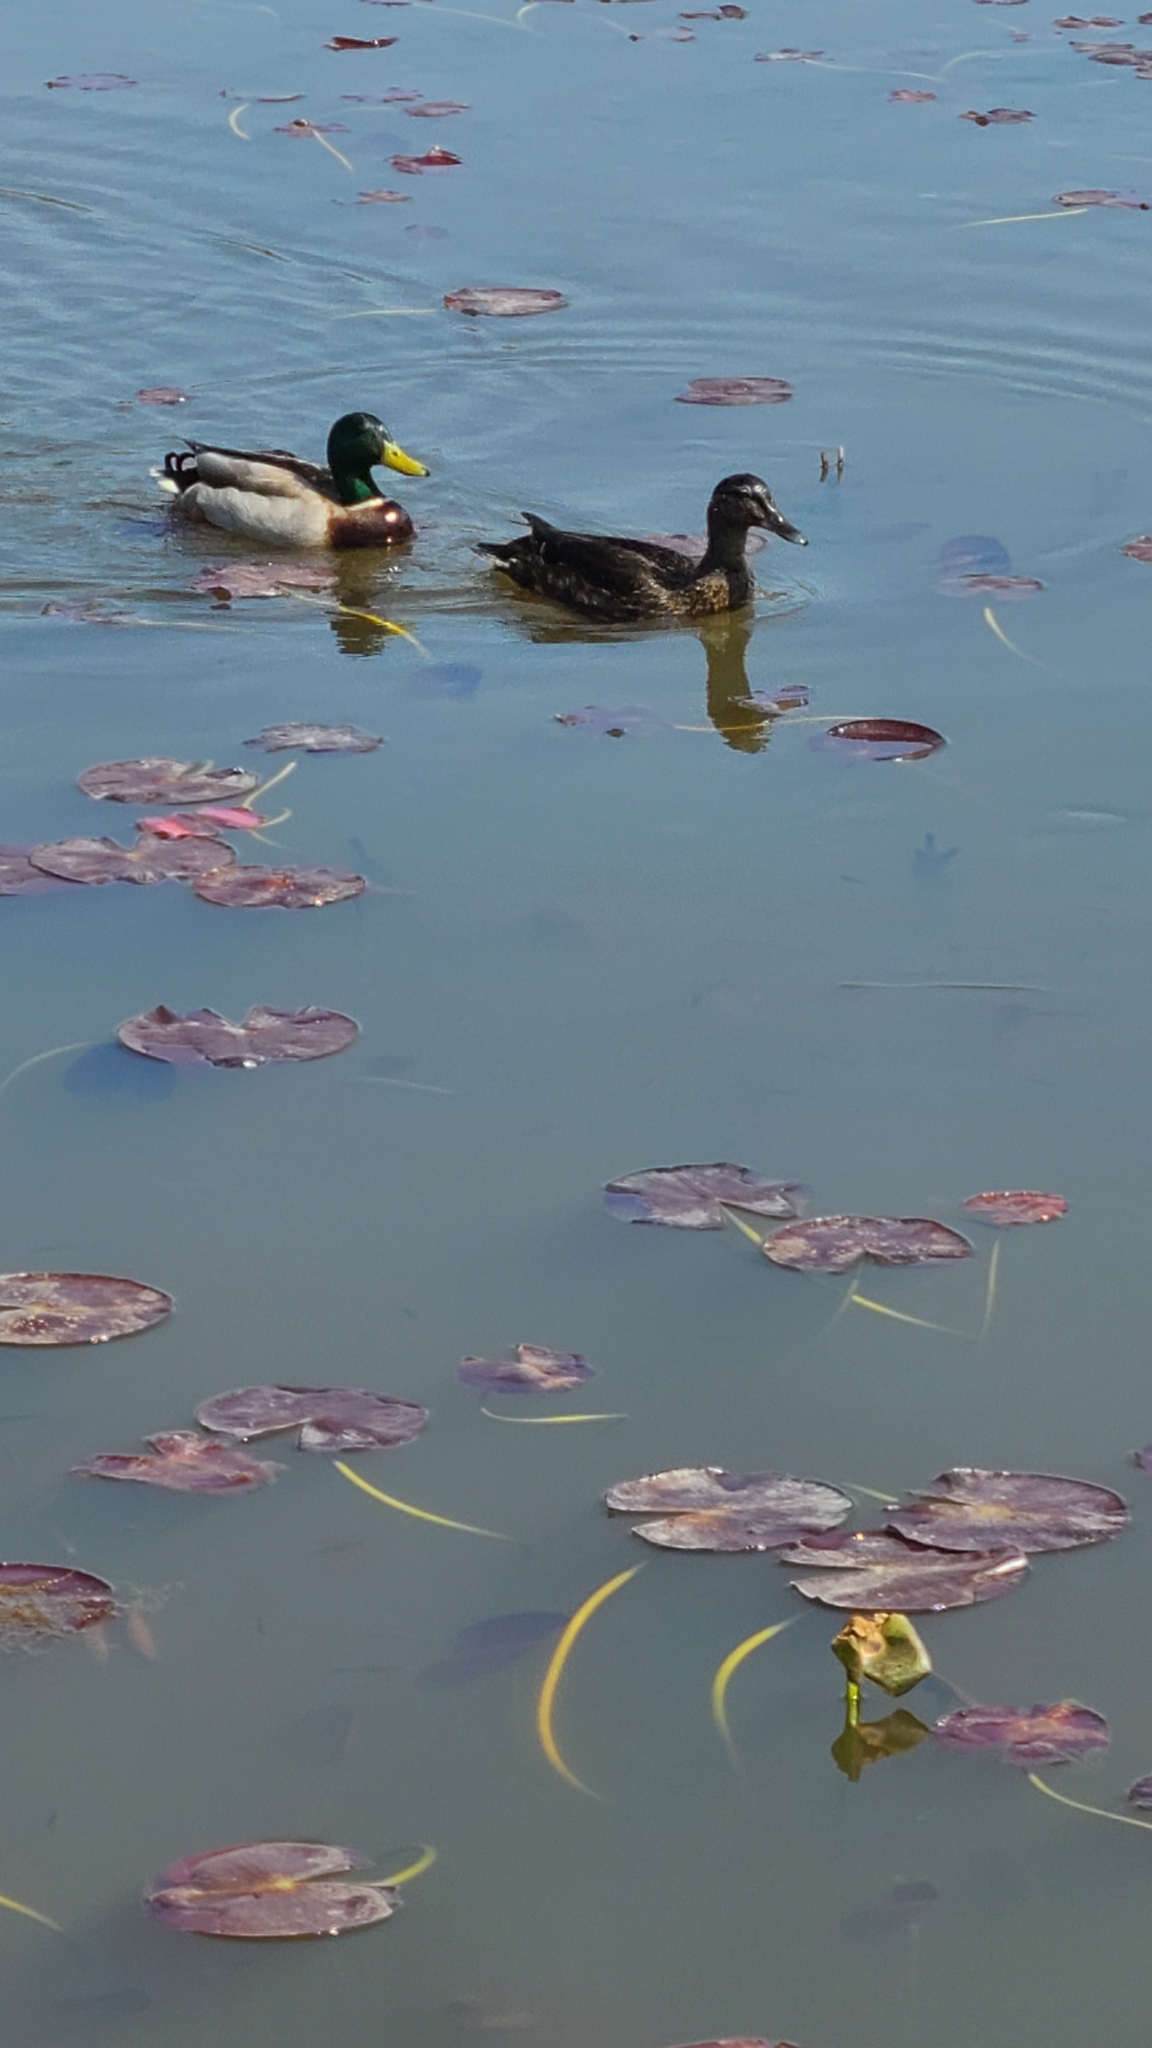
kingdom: Animalia
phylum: Chordata
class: Aves
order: Anseriformes
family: Anatidae
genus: Anas
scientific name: Anas platyrhynchos
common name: Mallard
